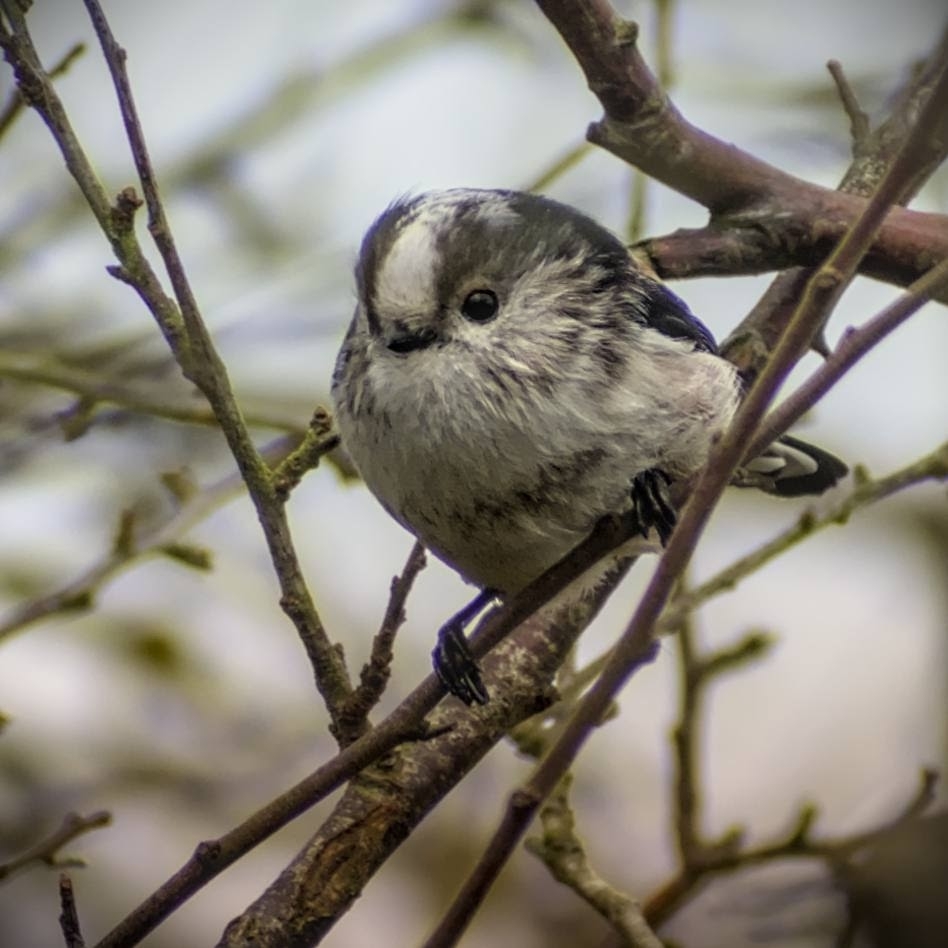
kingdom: Animalia
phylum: Chordata
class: Aves
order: Passeriformes
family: Aegithalidae
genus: Aegithalos
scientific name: Aegithalos caudatus
